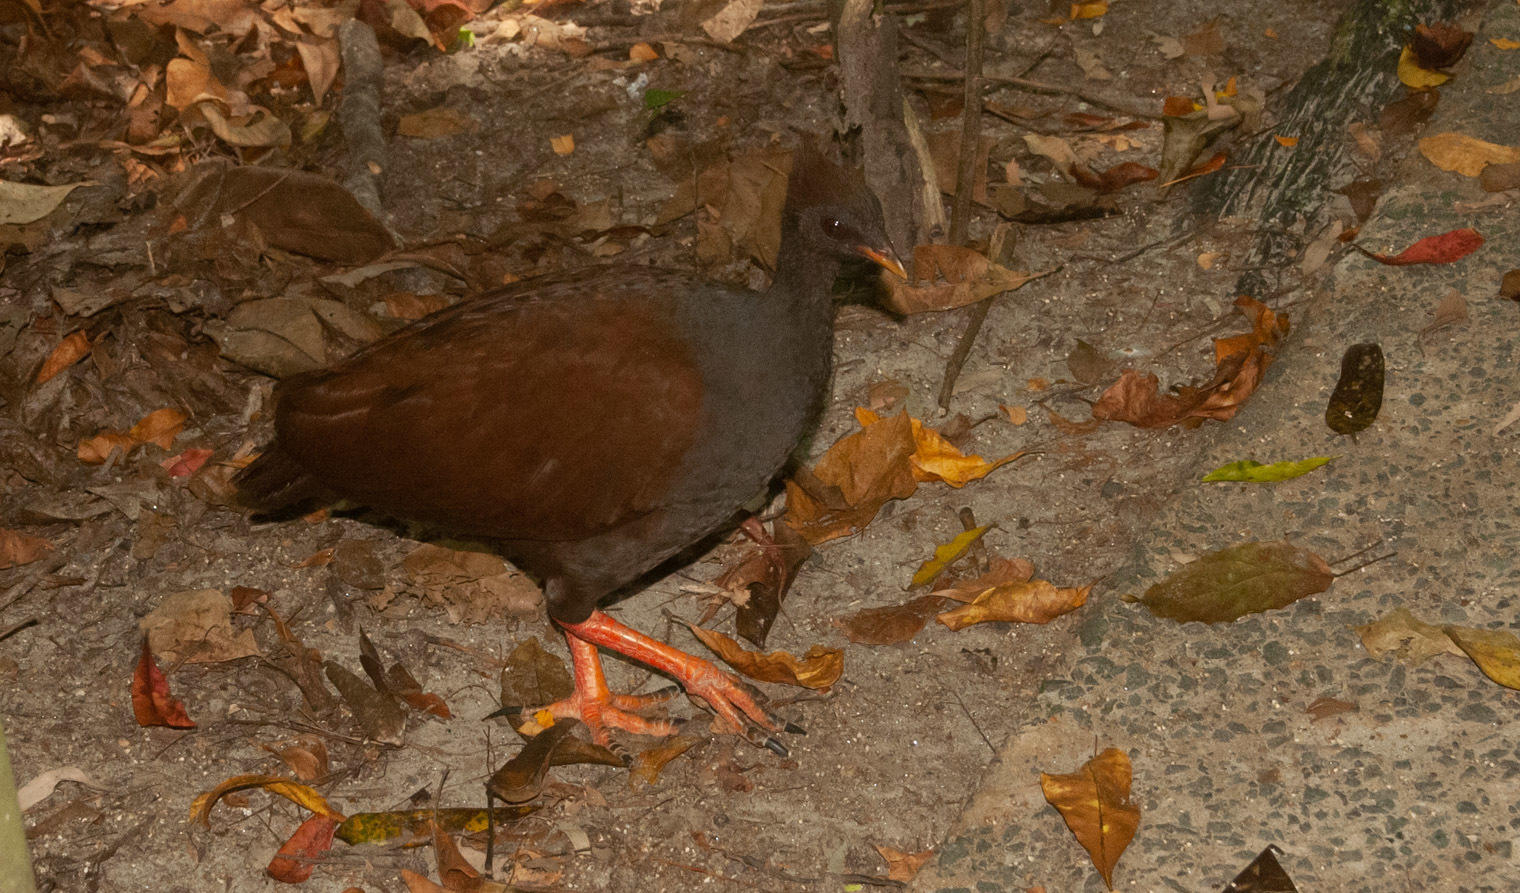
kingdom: Animalia
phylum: Chordata
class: Aves
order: Galliformes
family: Megapodiidae
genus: Megapodius
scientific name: Megapodius reinwardt
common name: Orange-footed scrubfowl
